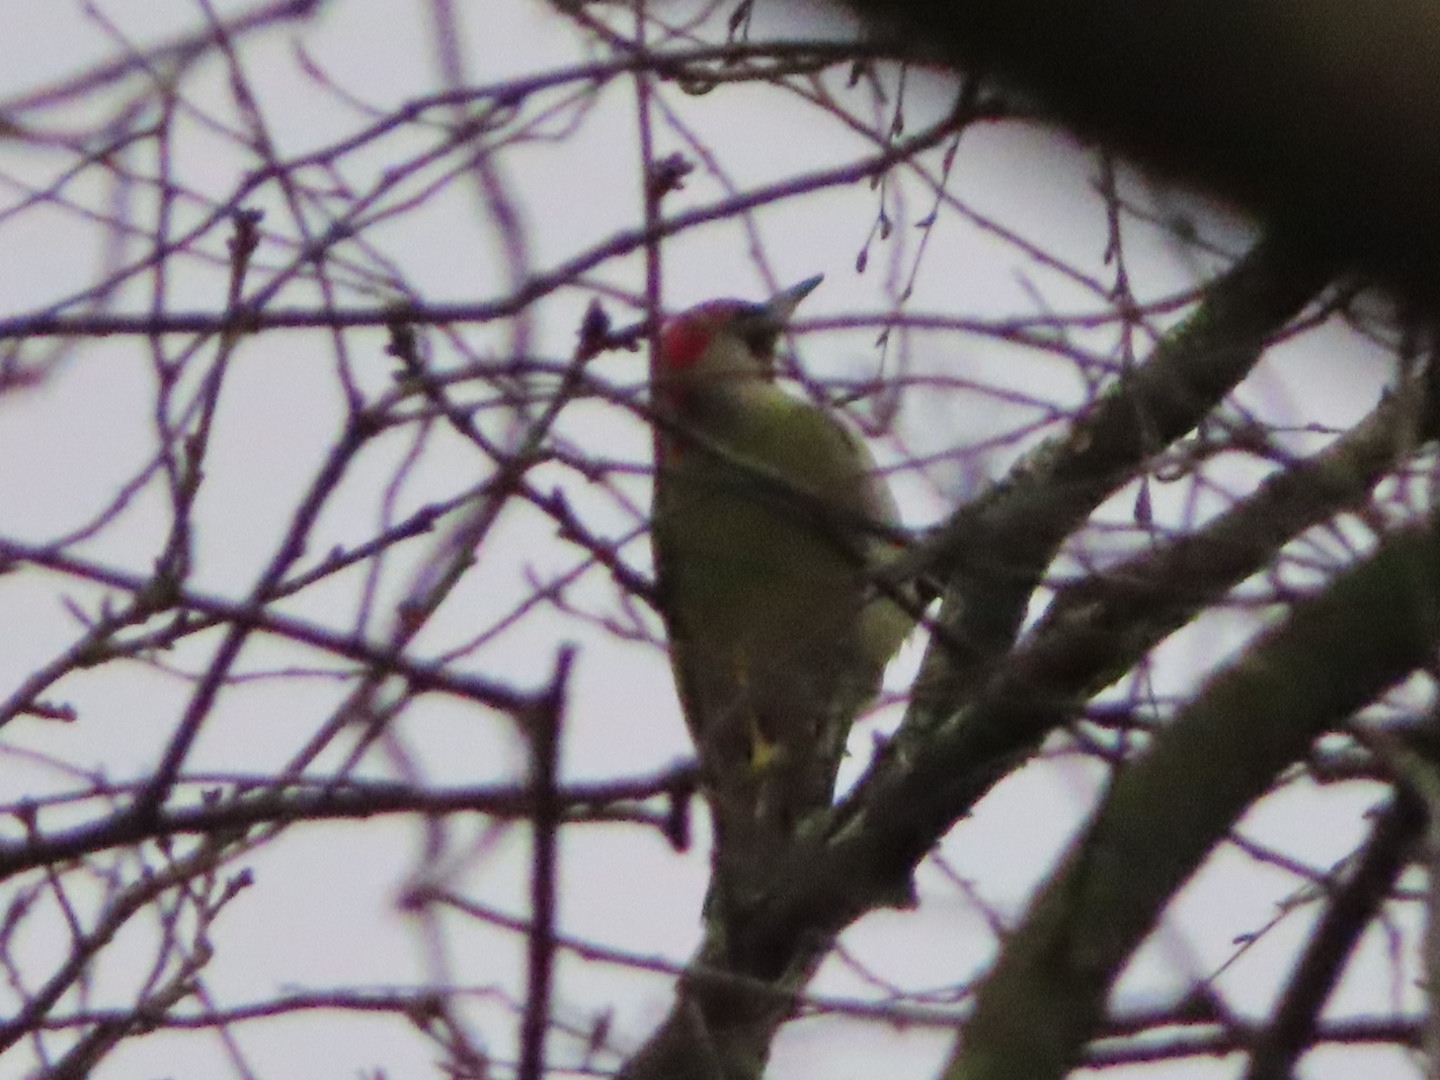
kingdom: Animalia
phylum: Chordata
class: Aves
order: Piciformes
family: Picidae
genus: Picus
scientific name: Picus viridis
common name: European green woodpecker
